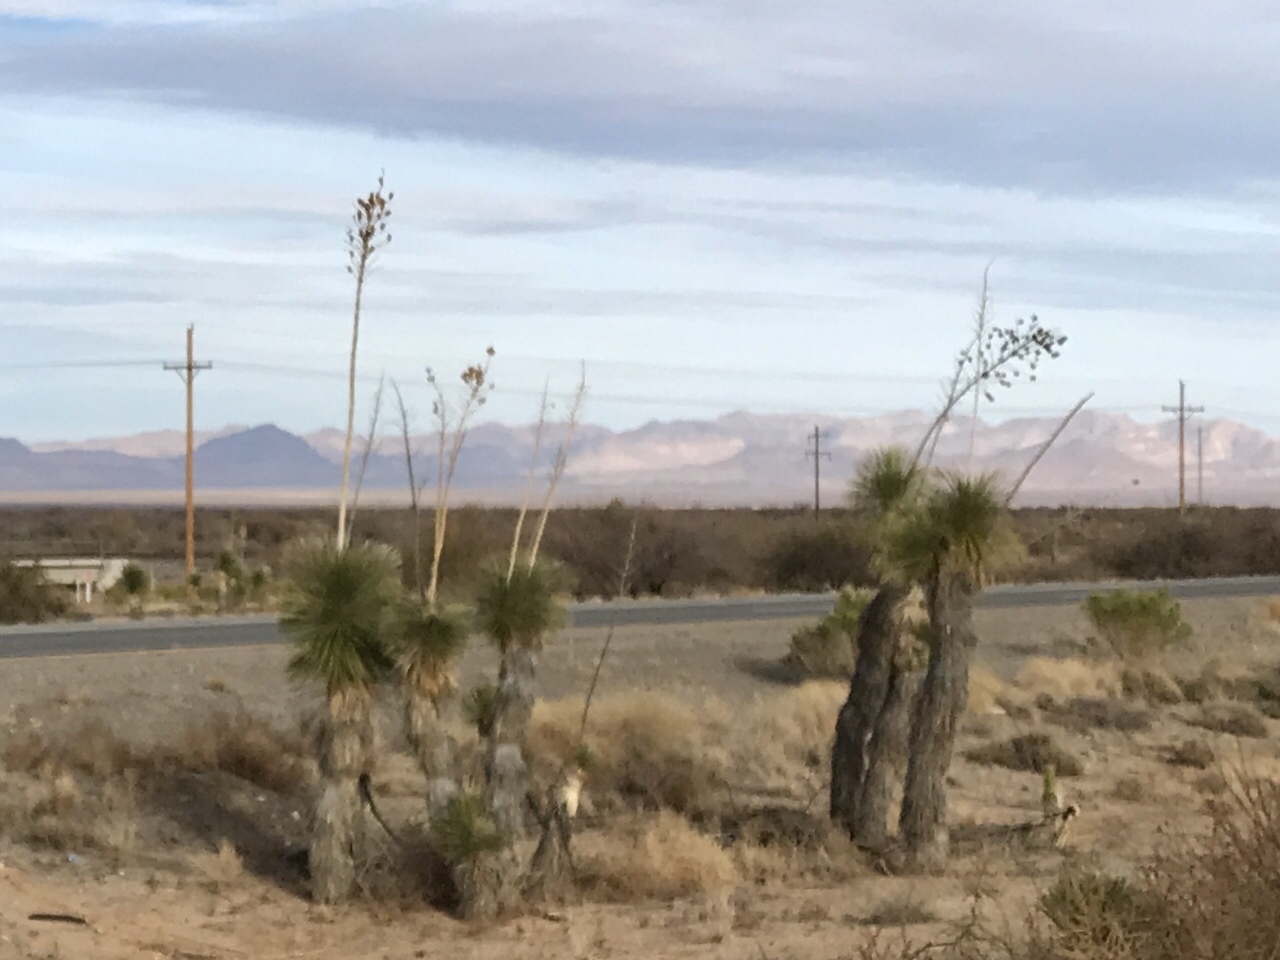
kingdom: Plantae
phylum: Tracheophyta
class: Liliopsida
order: Asparagales
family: Asparagaceae
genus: Yucca
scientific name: Yucca elata
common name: Palmella
